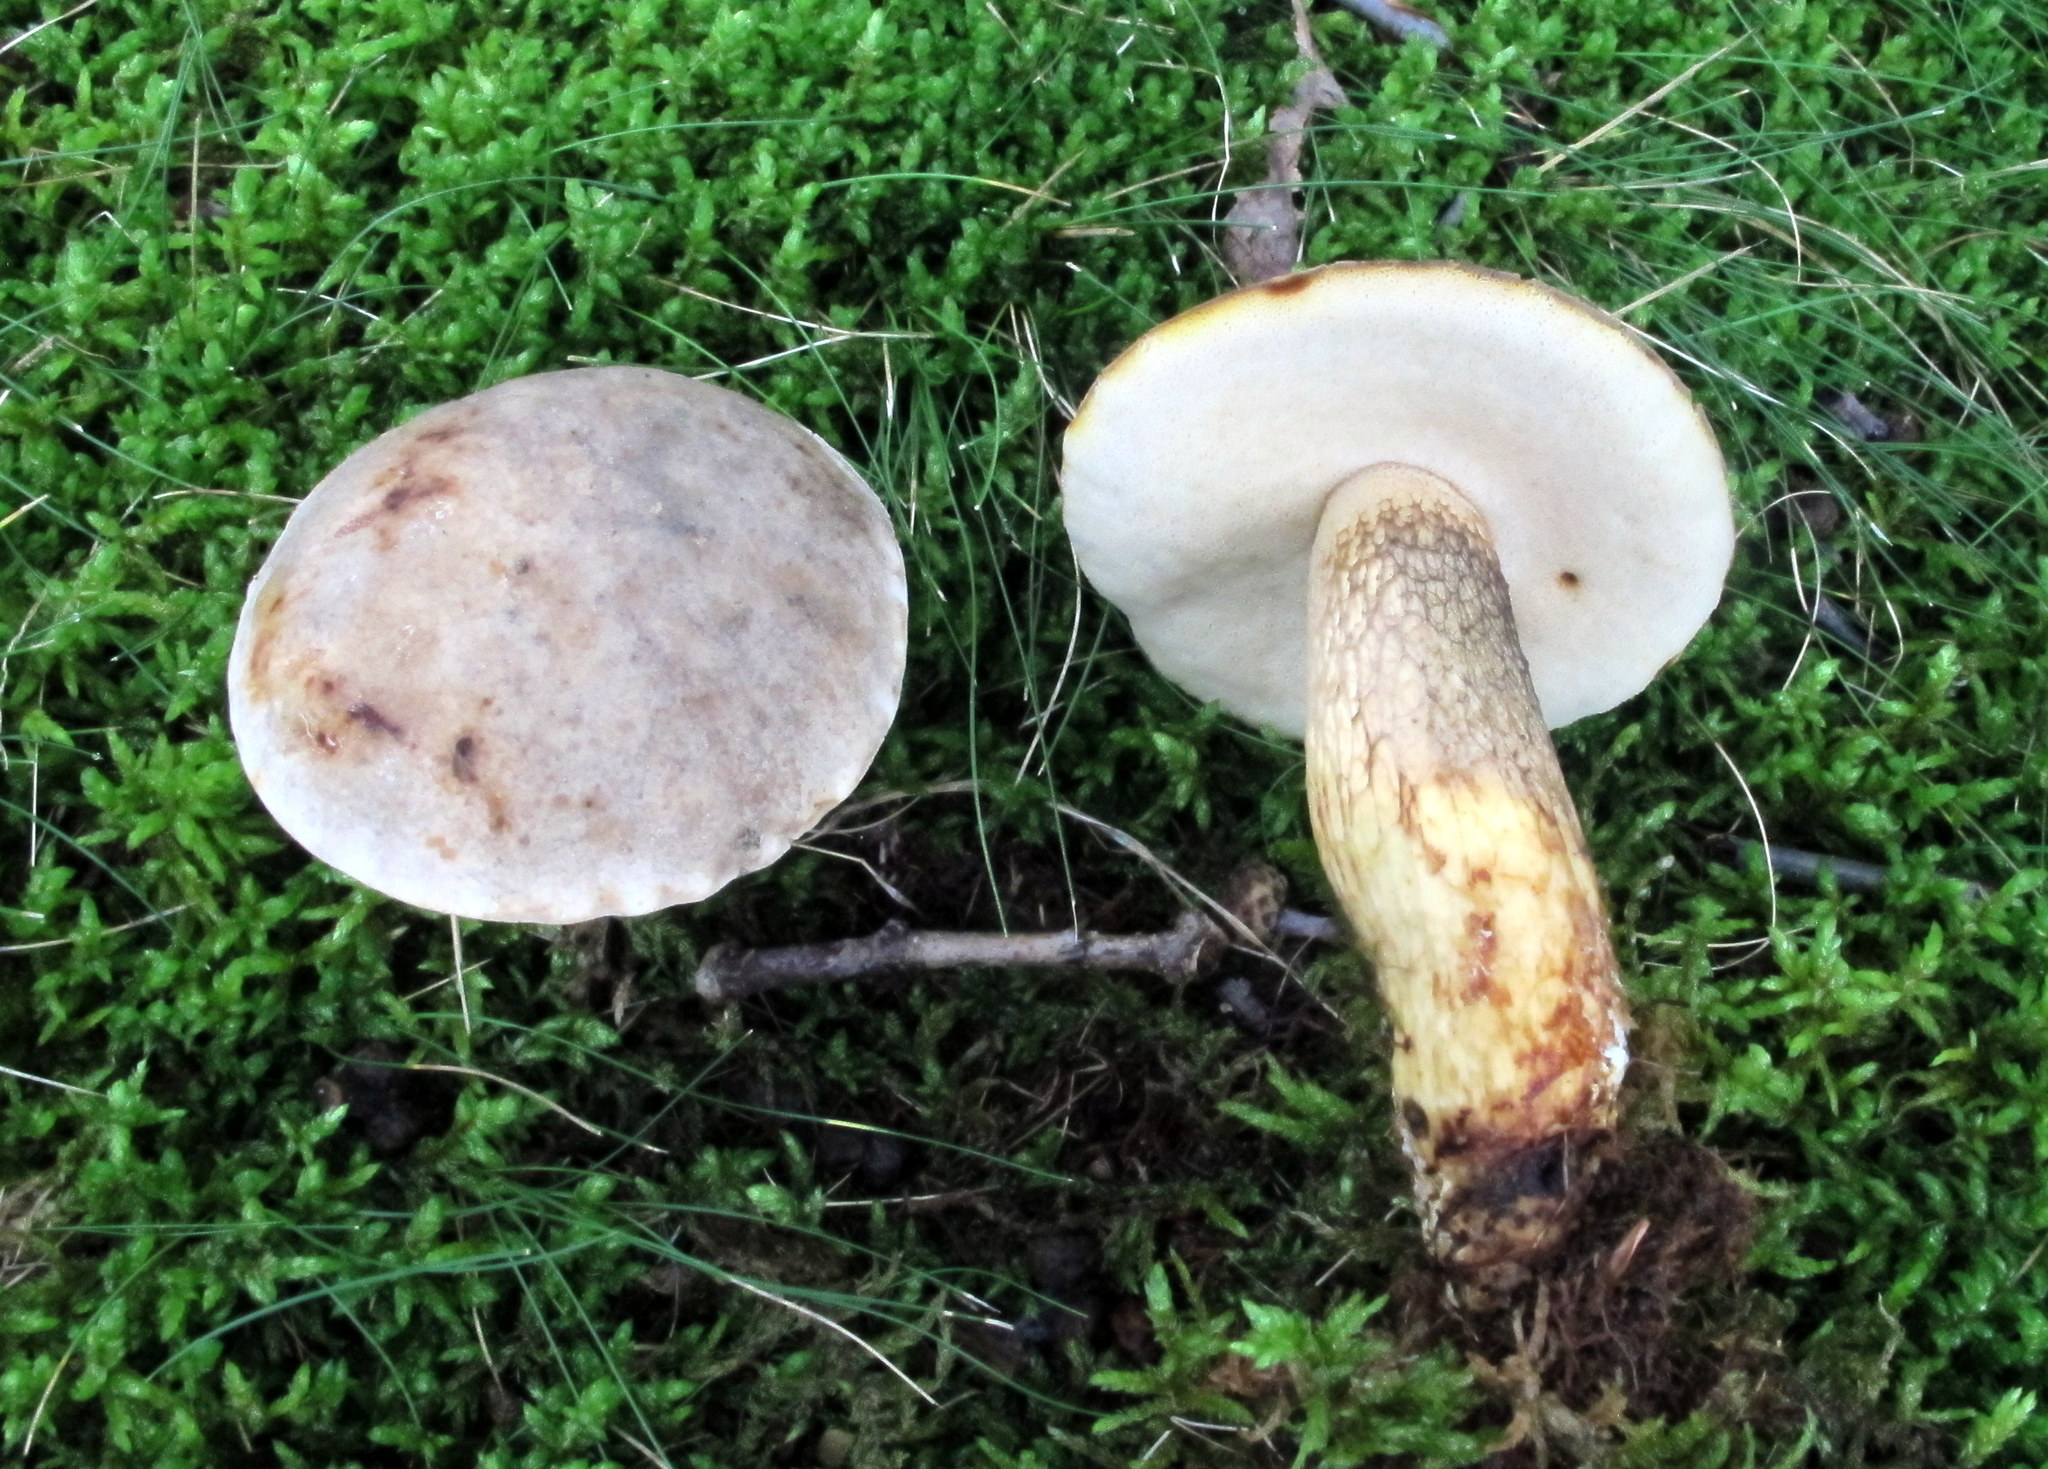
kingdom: Fungi
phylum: Basidiomycota
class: Agaricomycetes
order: Boletales
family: Boletaceae
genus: Retiboletus
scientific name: Retiboletus griseus
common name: Grey bolete
